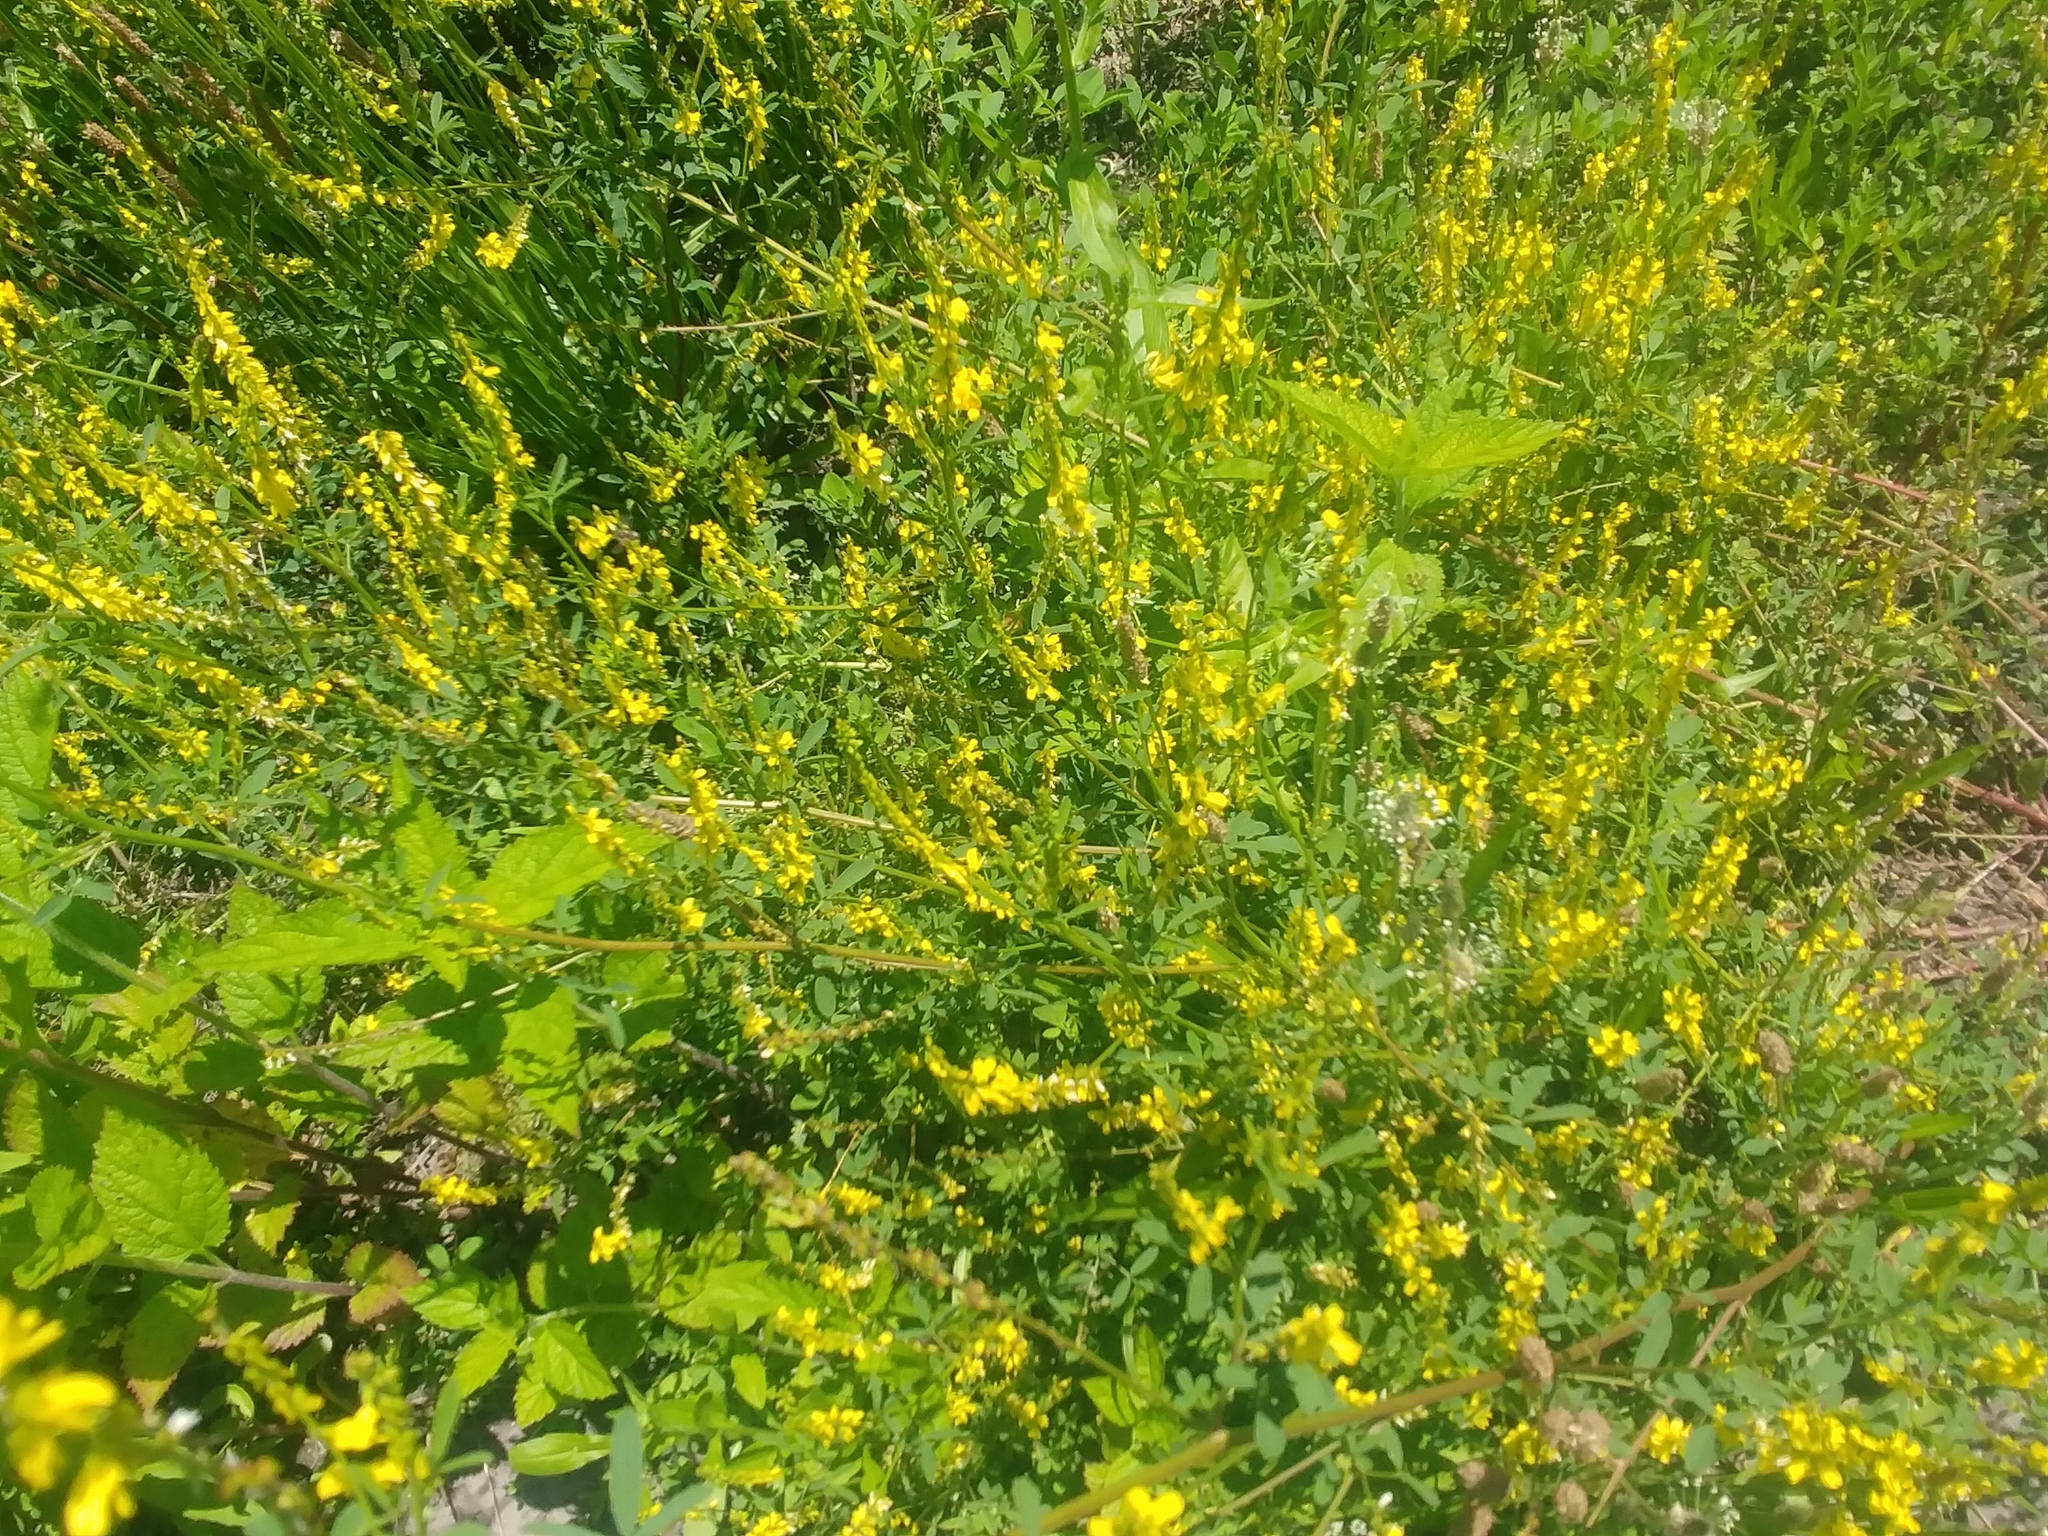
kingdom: Plantae
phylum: Tracheophyta
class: Magnoliopsida
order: Fabales
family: Fabaceae
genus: Melilotus
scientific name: Melilotus officinalis
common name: Sweetclover
